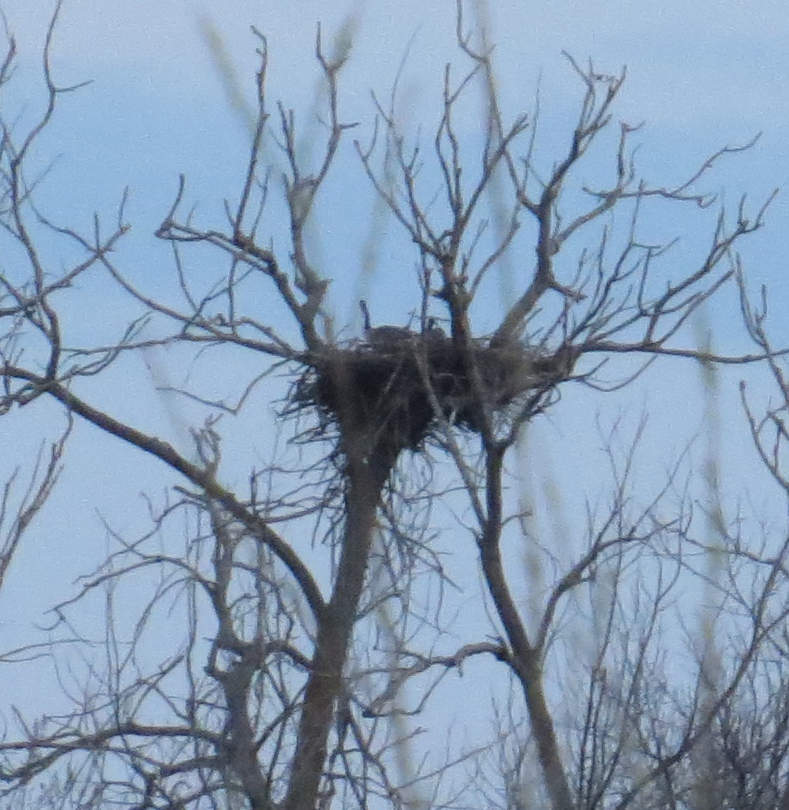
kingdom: Animalia
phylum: Chordata
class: Aves
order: Anseriformes
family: Anatidae
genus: Branta
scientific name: Branta canadensis
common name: Canada goose
